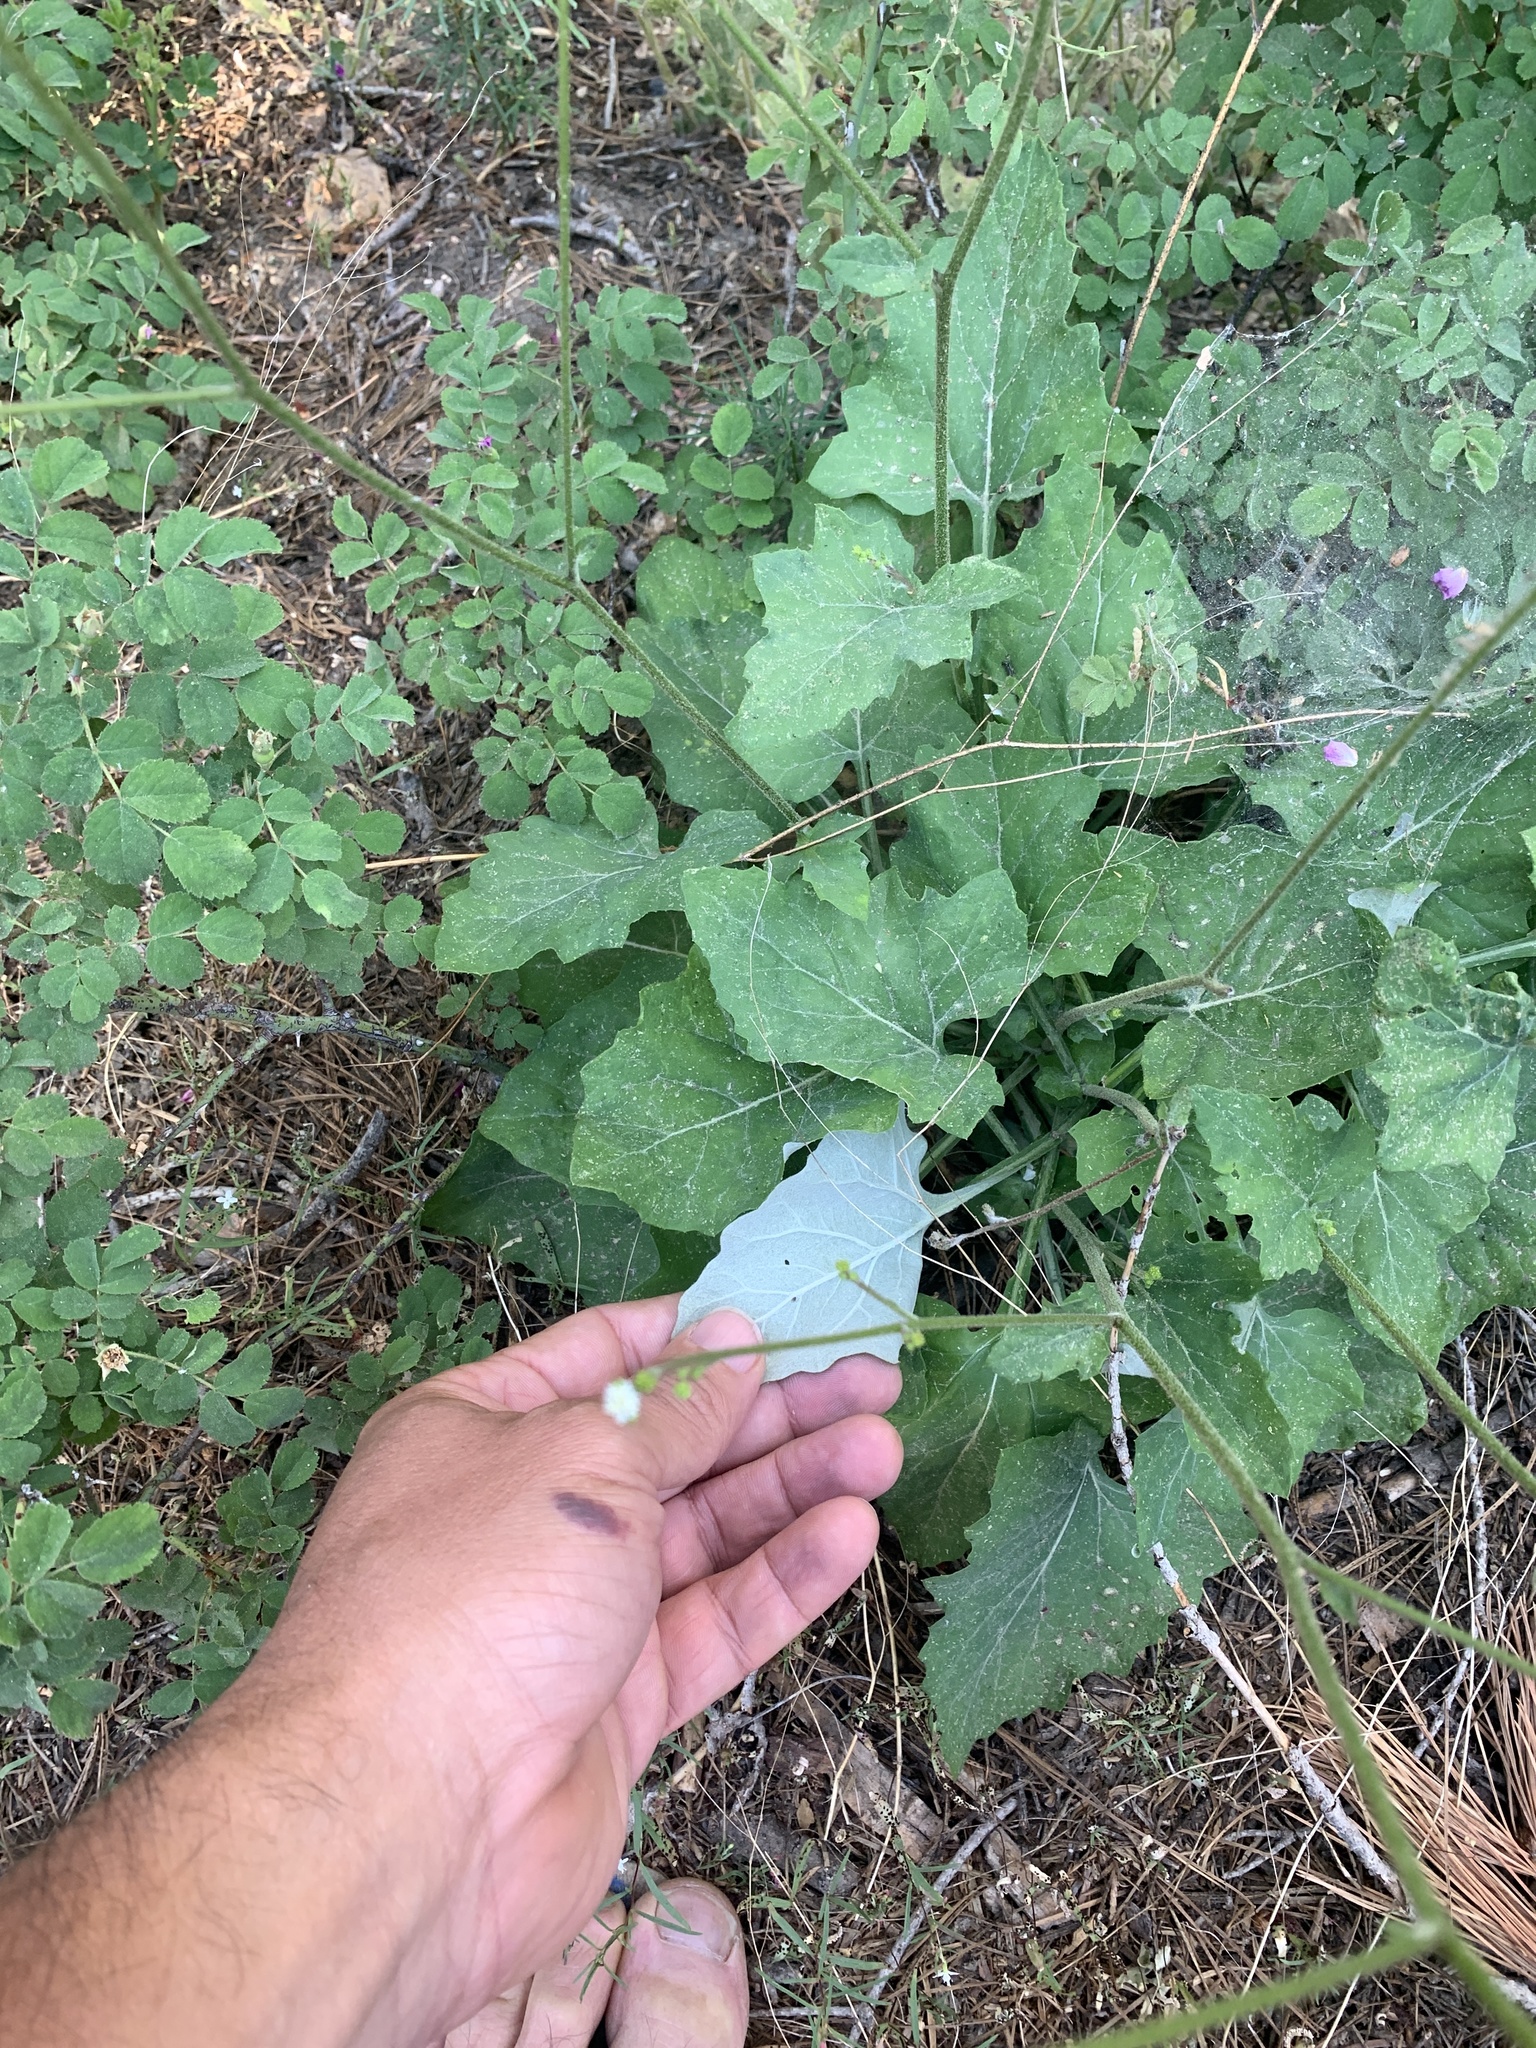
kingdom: Plantae
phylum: Tracheophyta
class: Magnoliopsida
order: Asterales
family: Asteraceae
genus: Adenocaulon
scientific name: Adenocaulon bicolor
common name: Trailplant
